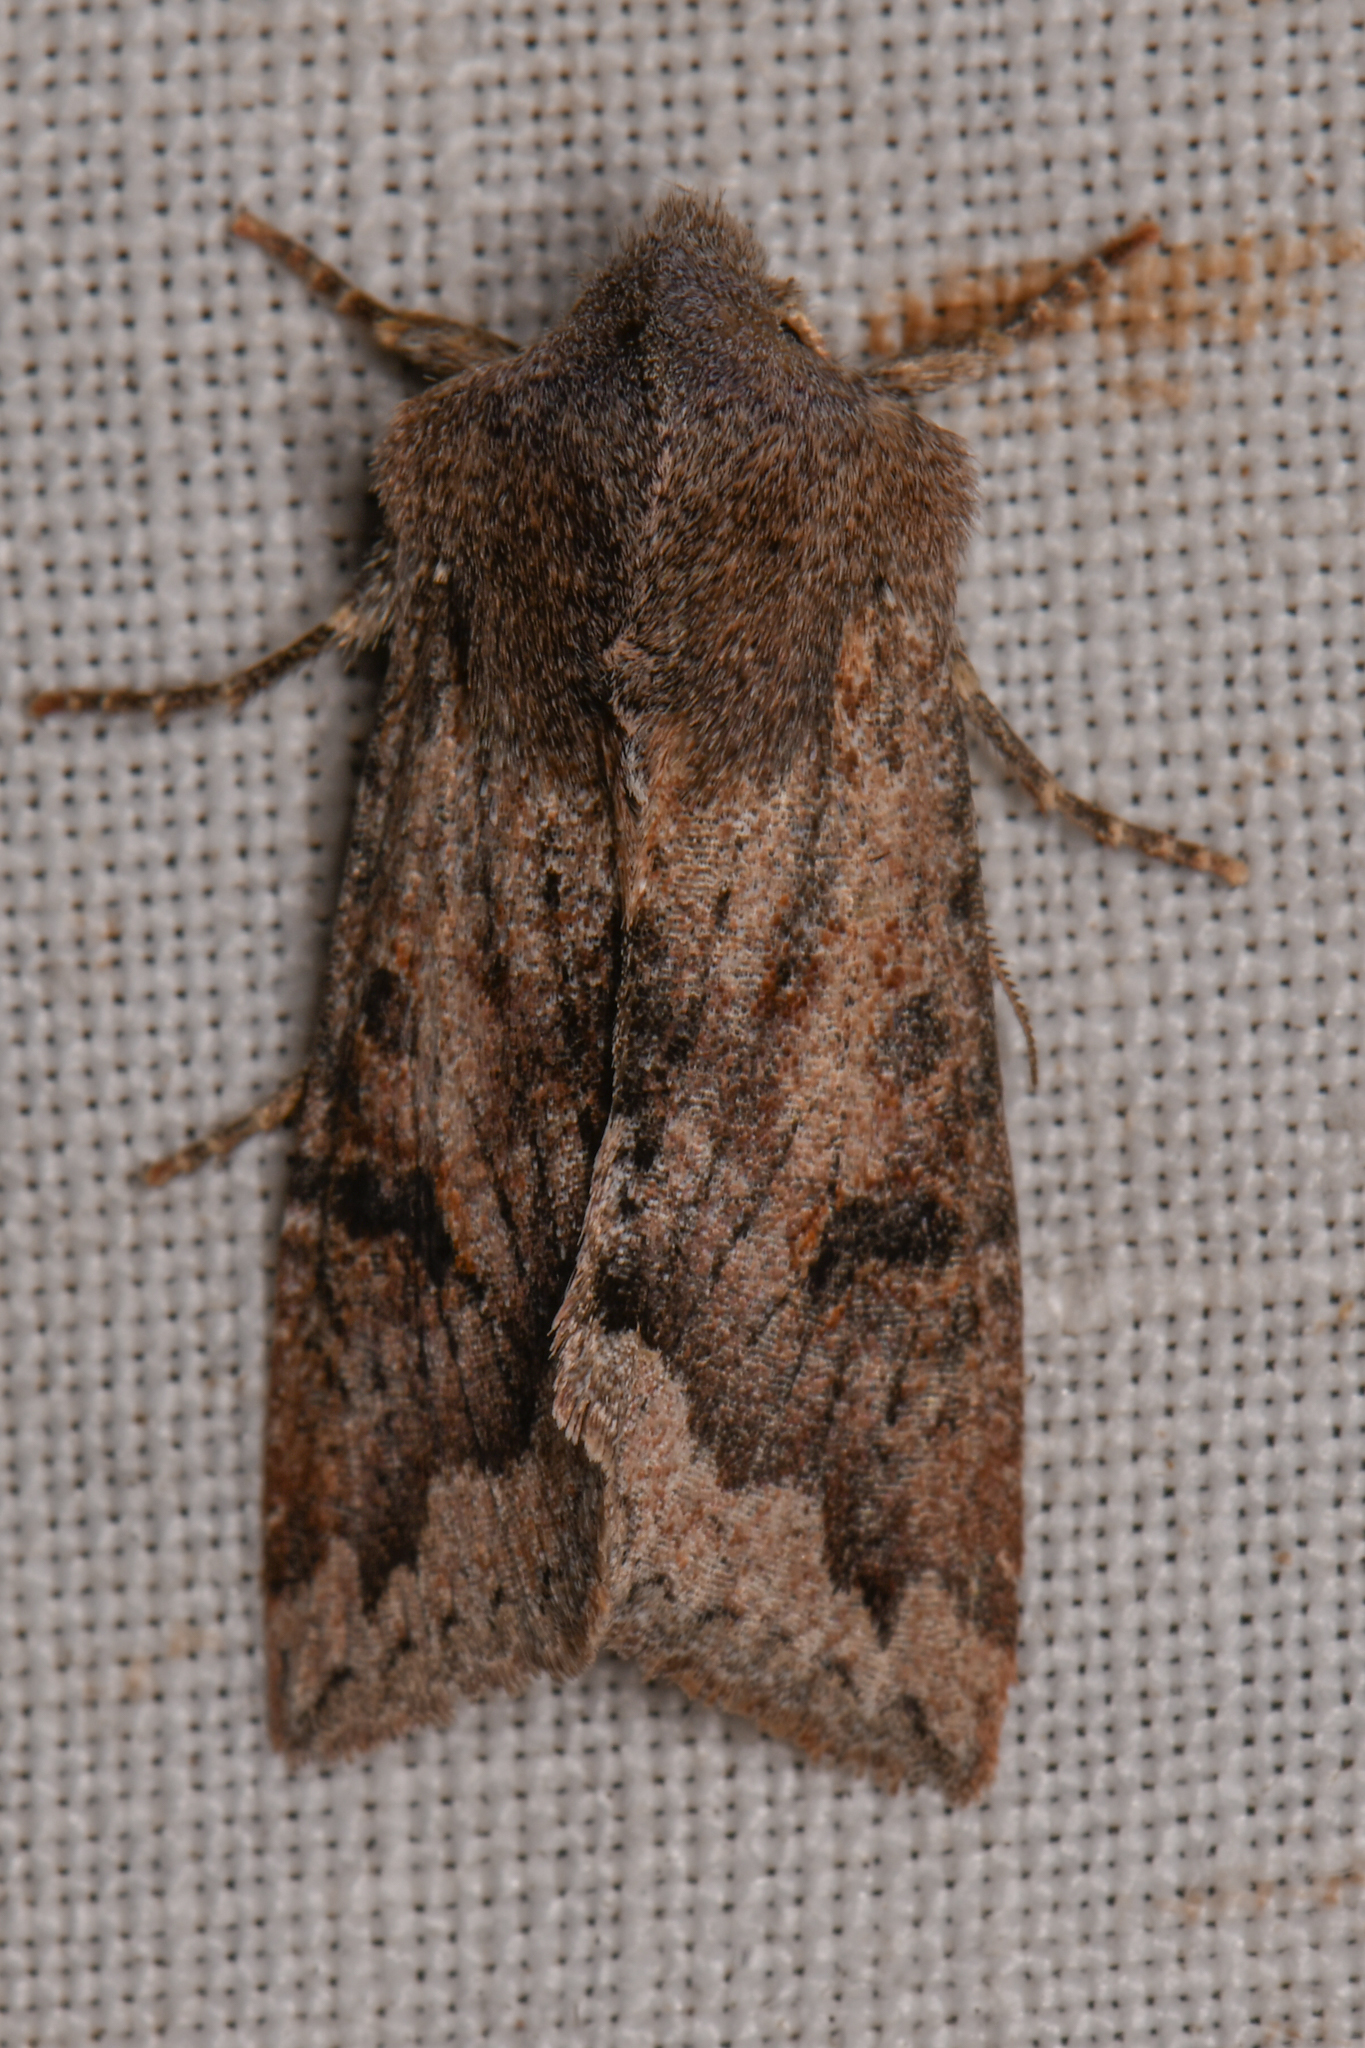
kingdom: Animalia
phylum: Arthropoda
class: Insecta
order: Lepidoptera
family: Noctuidae
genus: Orthosia
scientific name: Orthosia erythrolita
